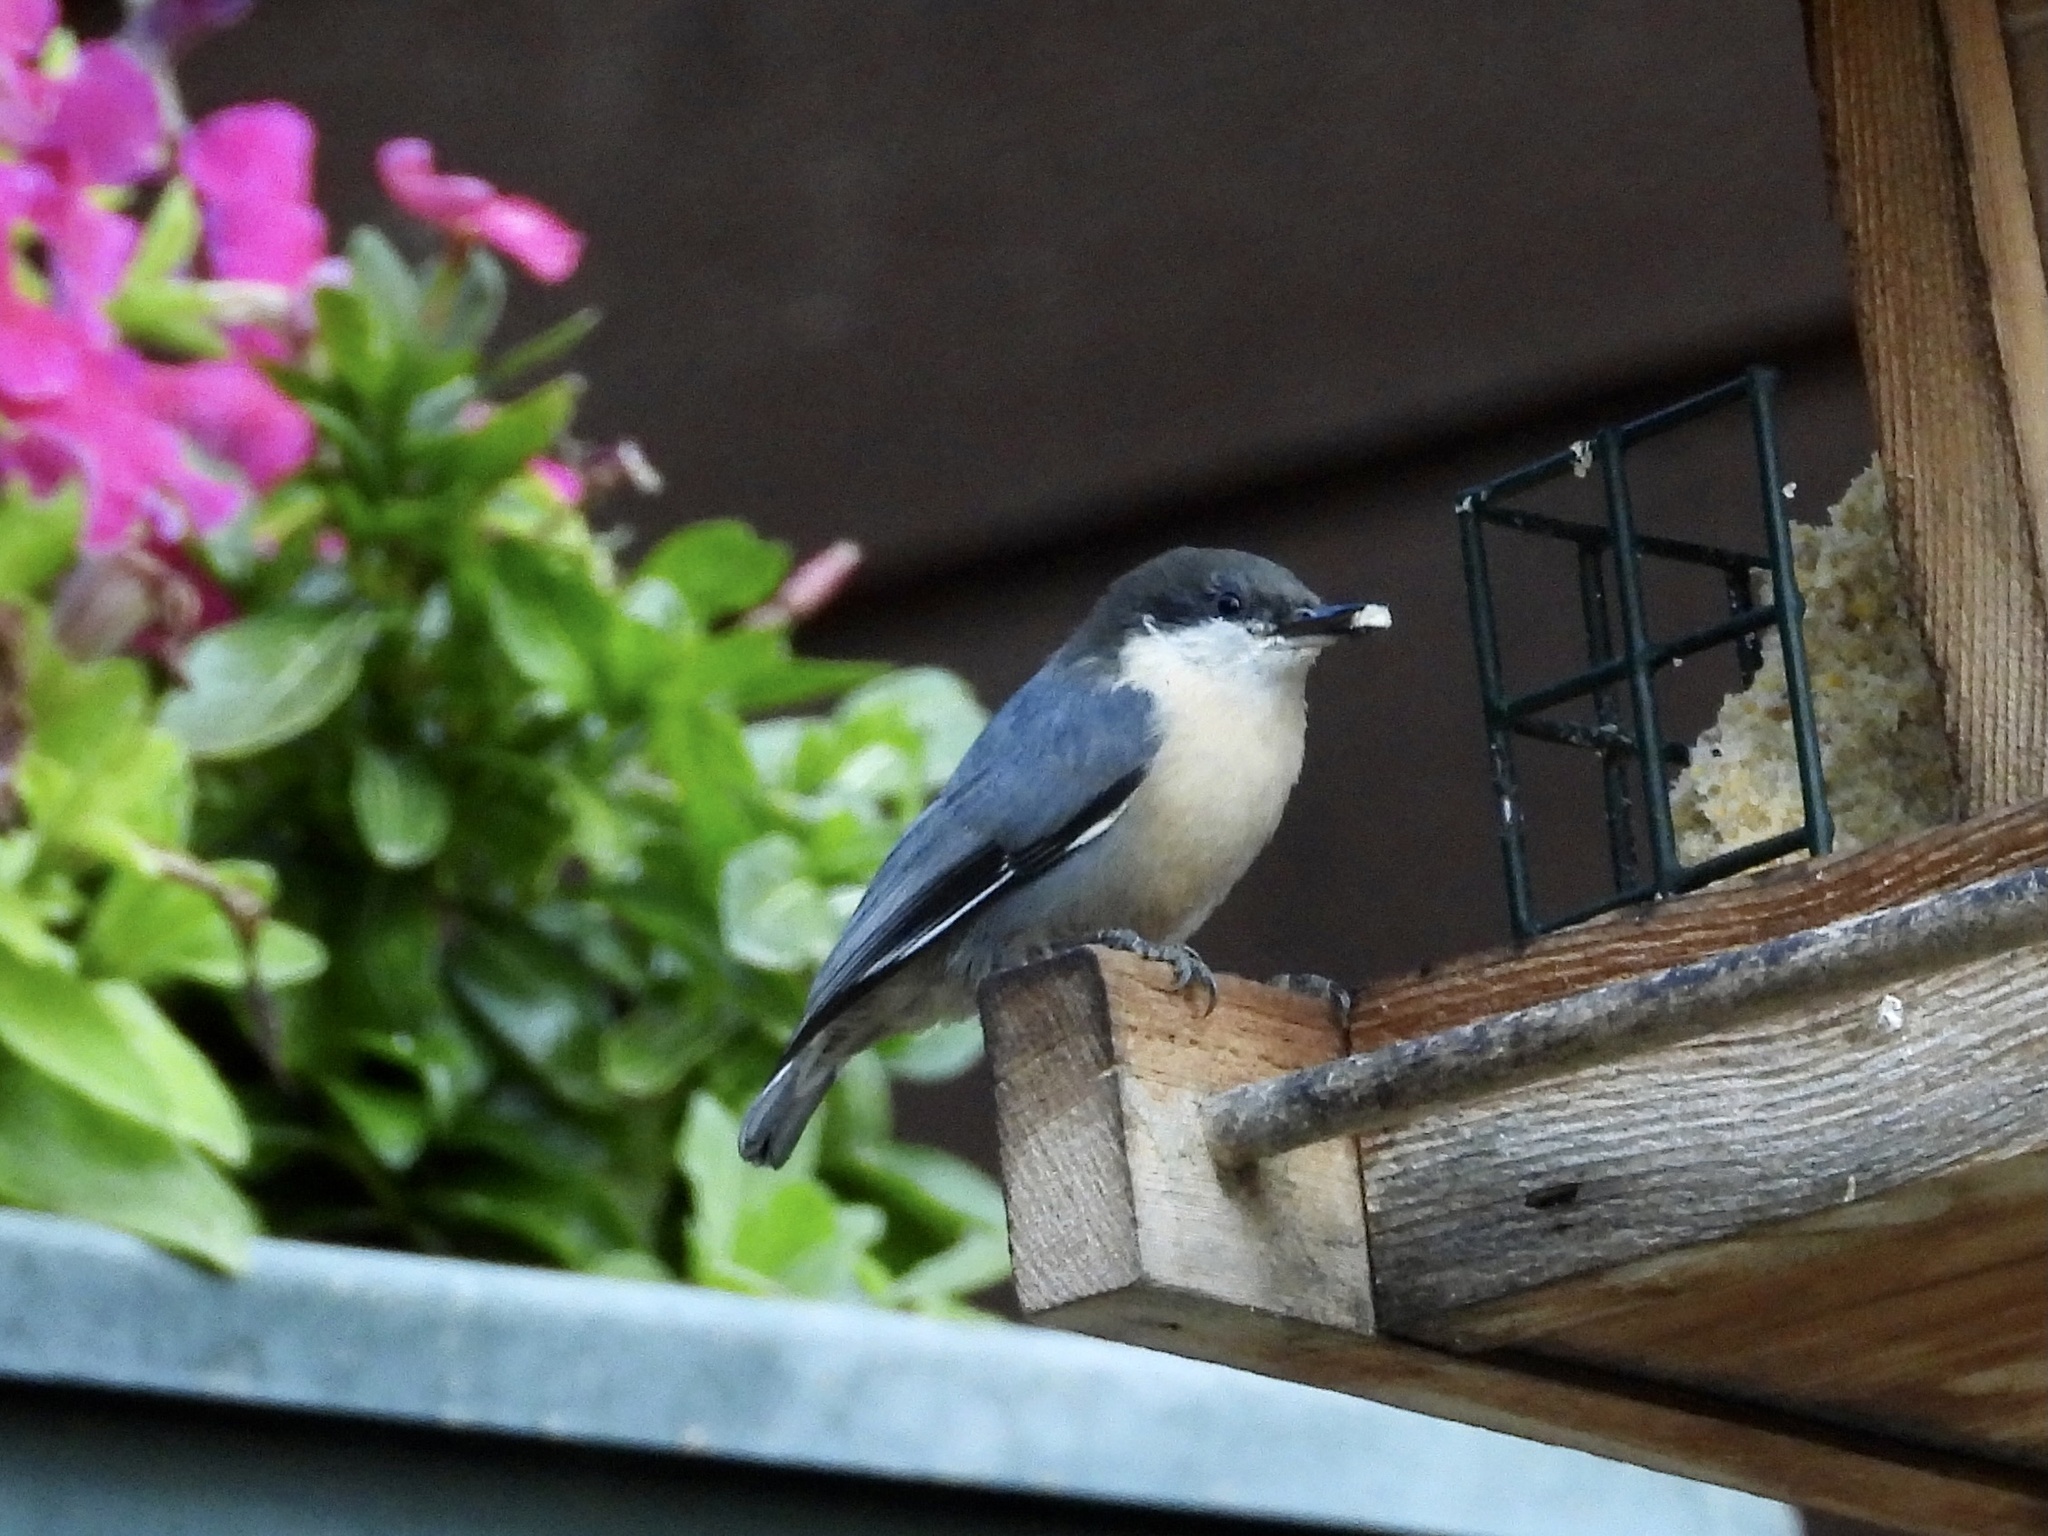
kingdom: Animalia
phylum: Chordata
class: Aves
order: Passeriformes
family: Sittidae
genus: Sitta
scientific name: Sitta pygmaea
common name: Pygmy nuthatch
